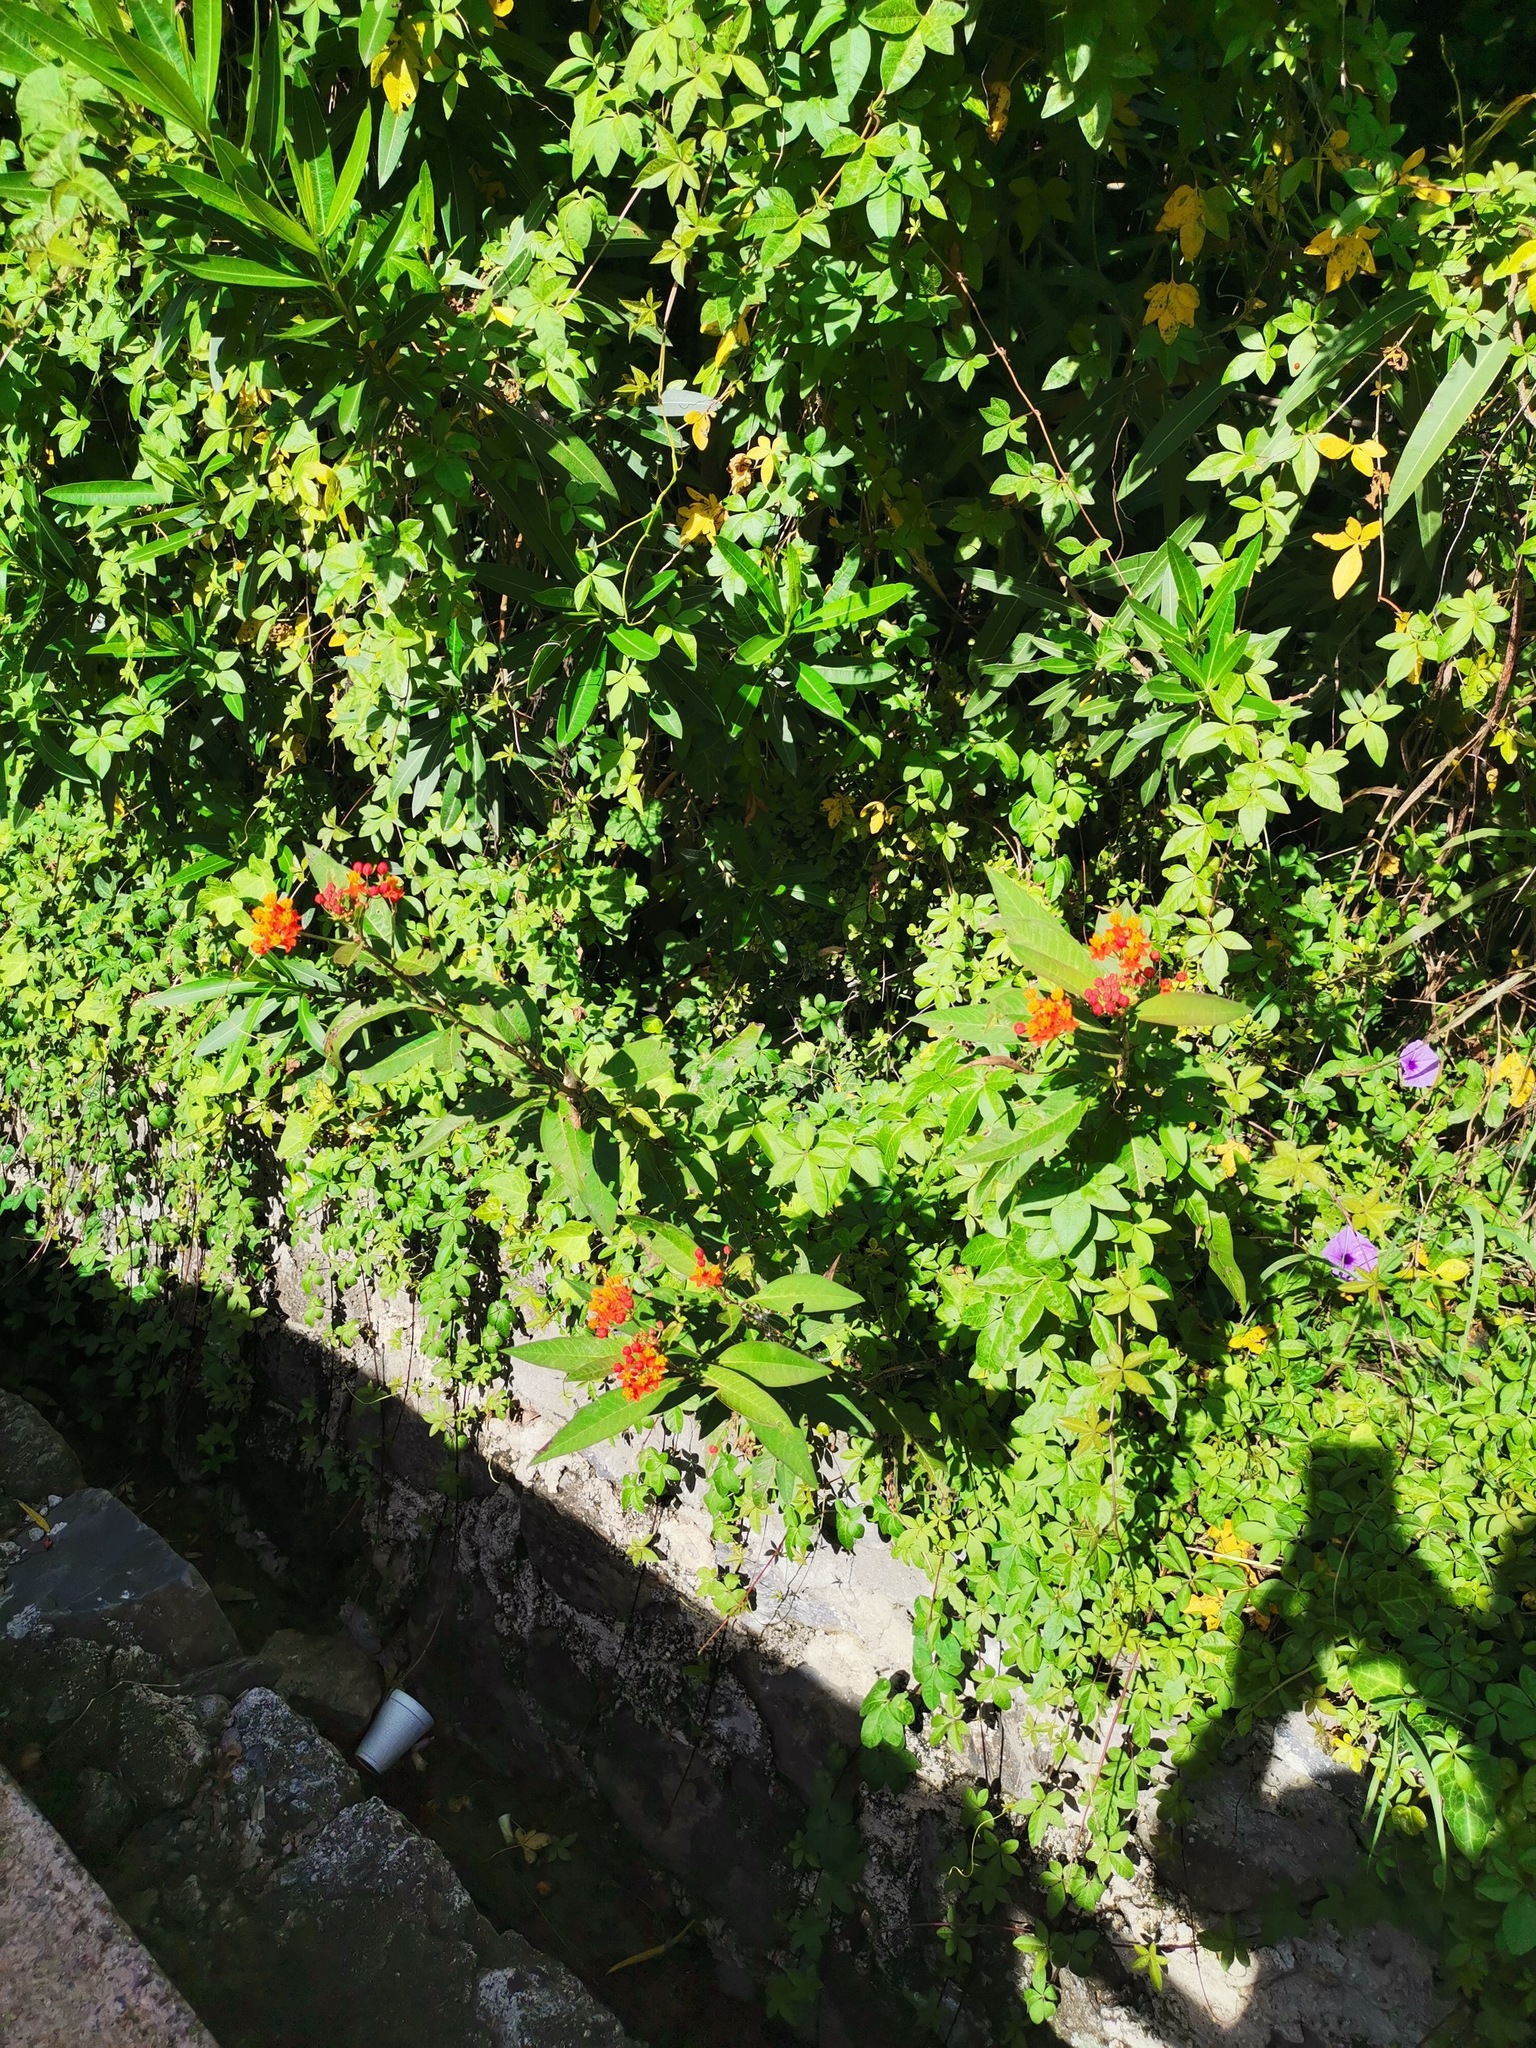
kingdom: Plantae
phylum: Tracheophyta
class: Magnoliopsida
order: Gentianales
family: Apocynaceae
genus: Asclepias
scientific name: Asclepias curassavica
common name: Bloodflower
